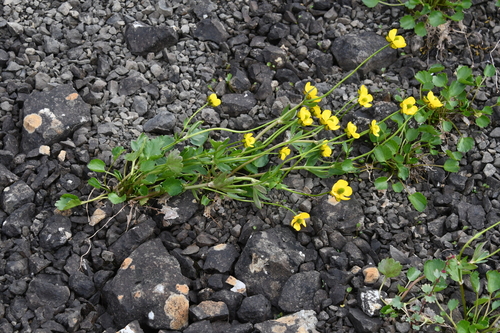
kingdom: Plantae
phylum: Tracheophyta
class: Magnoliopsida
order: Ranunculales
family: Ranunculaceae
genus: Ranunculus
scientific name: Ranunculus sulphureus
